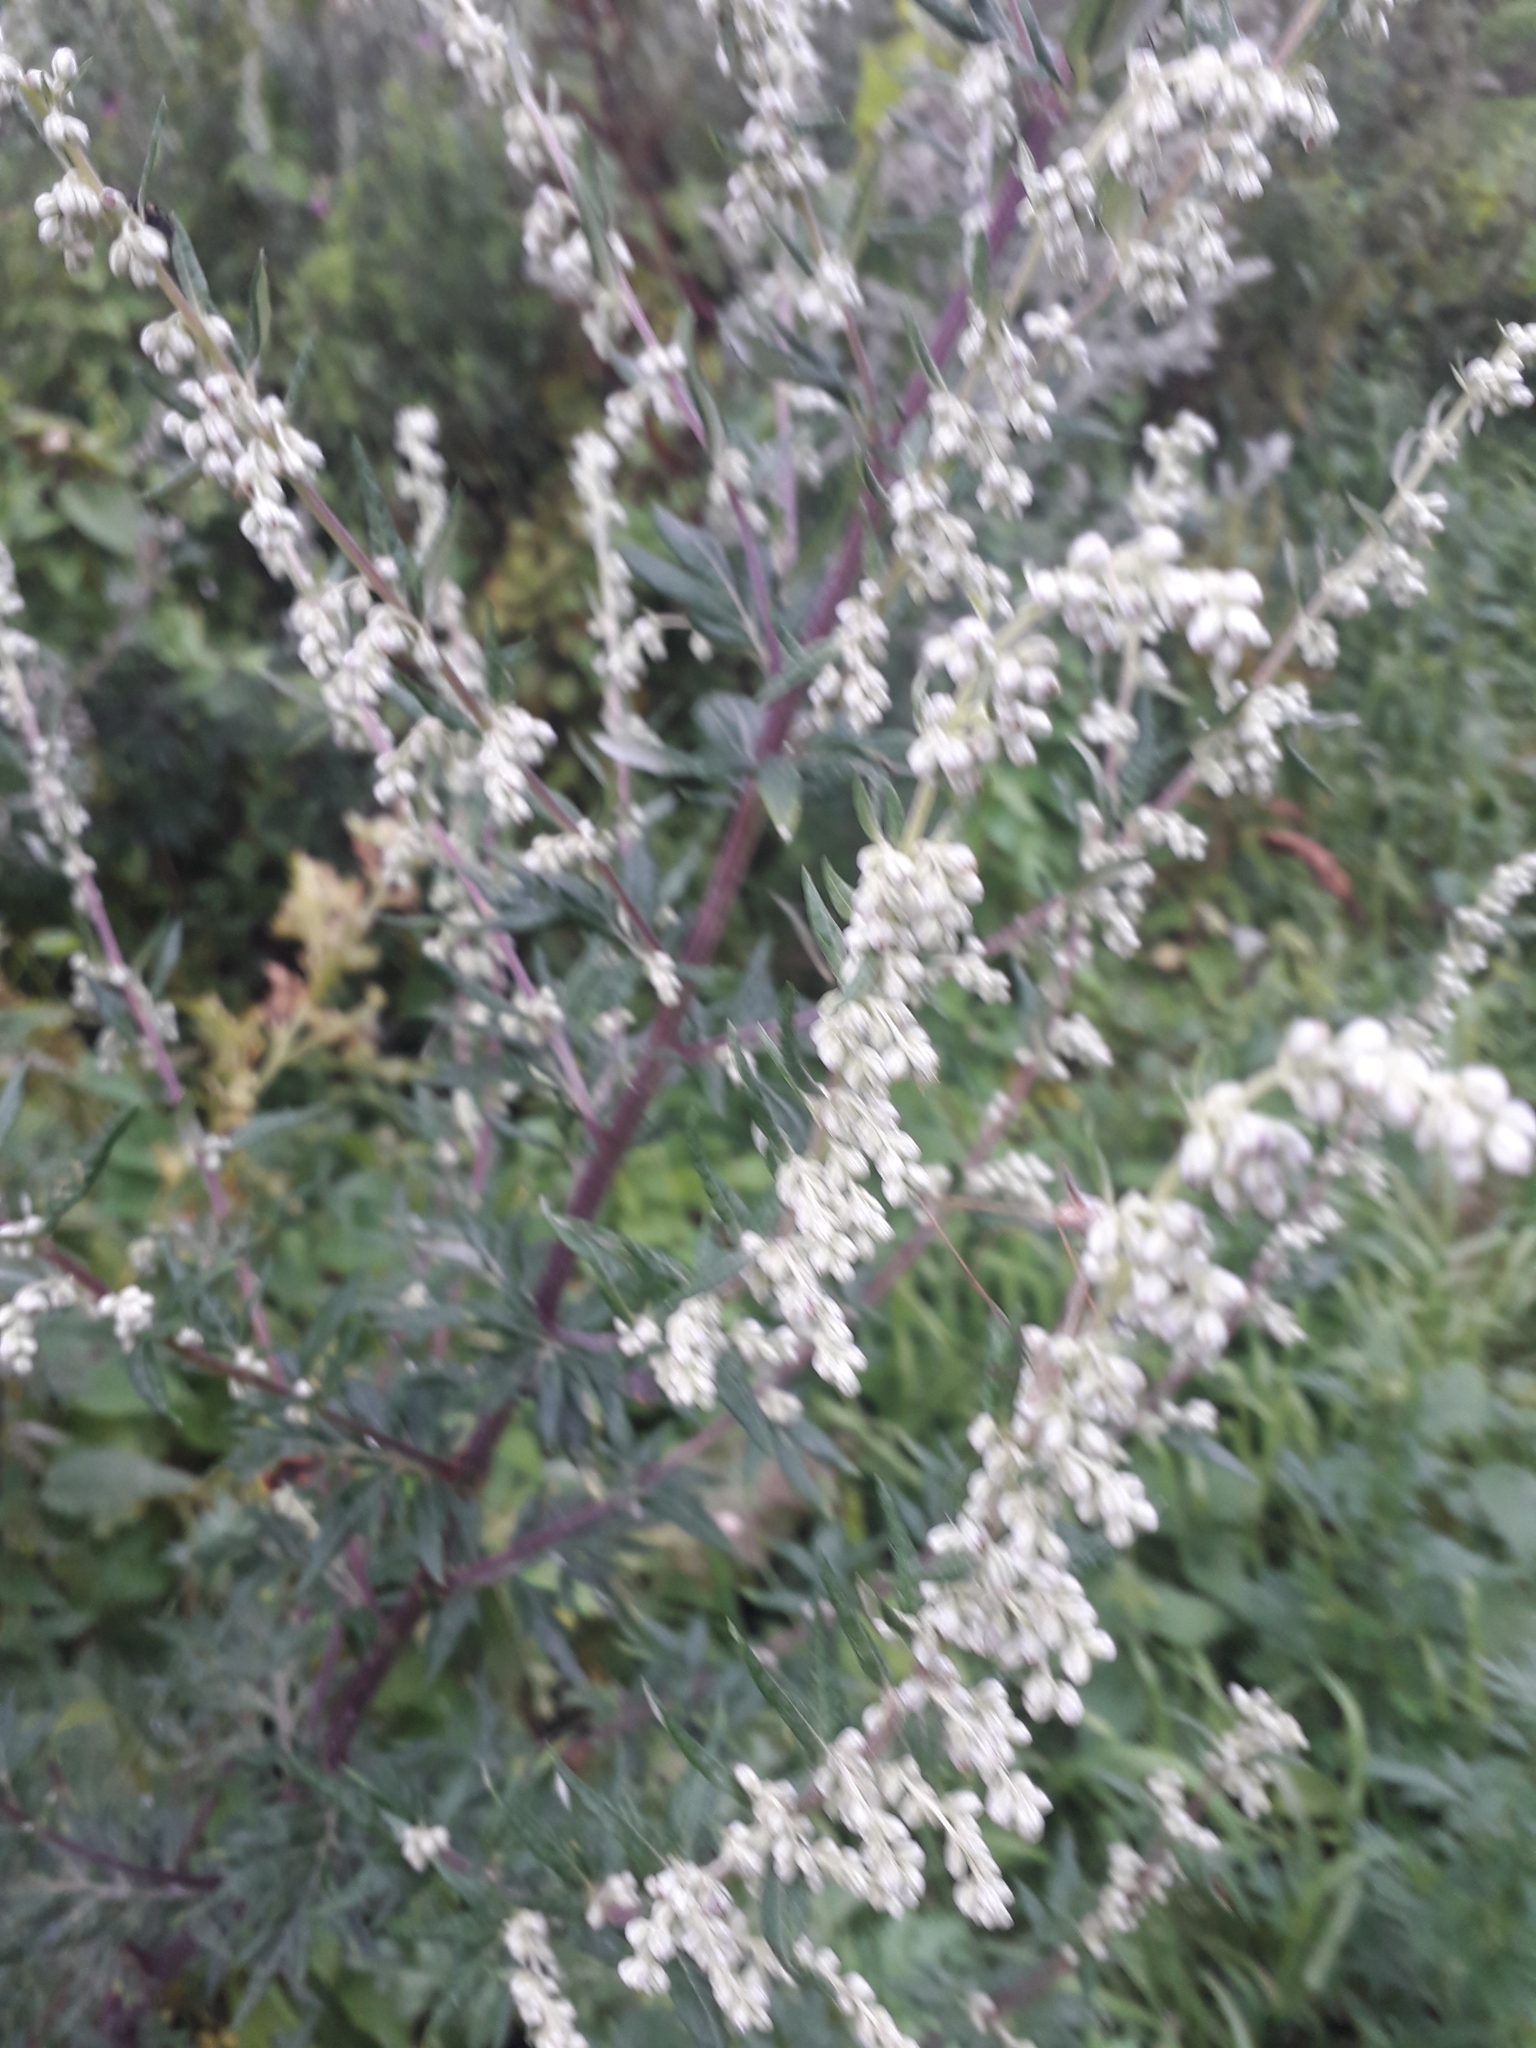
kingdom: Plantae
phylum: Tracheophyta
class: Magnoliopsida
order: Asterales
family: Asteraceae
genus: Artemisia
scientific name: Artemisia vulgaris
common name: Mugwort
